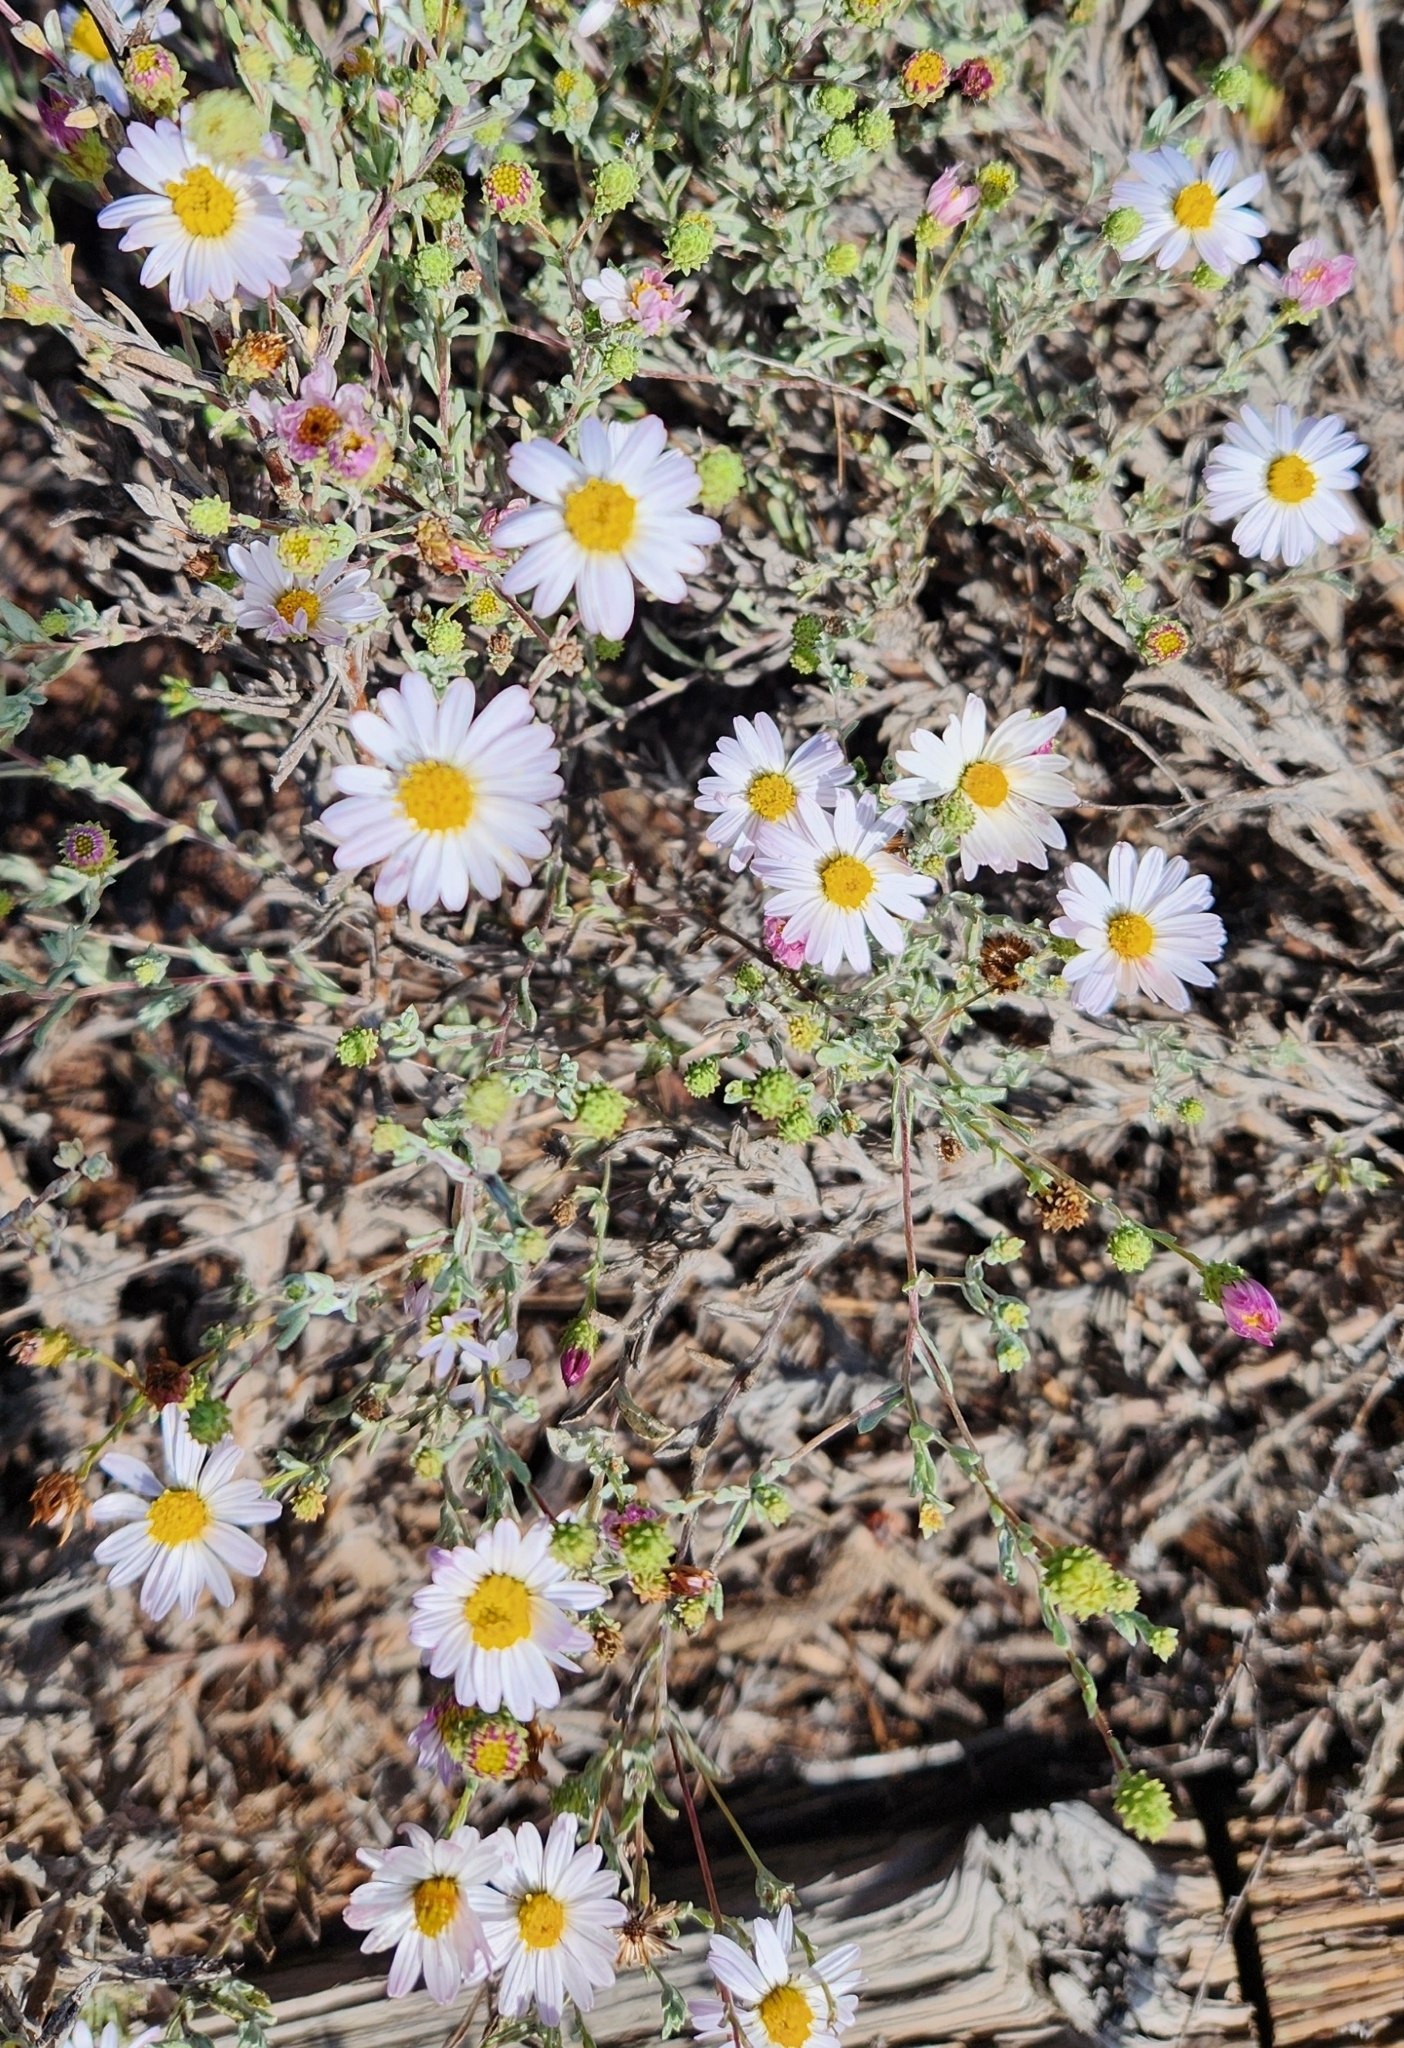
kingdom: Plantae
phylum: Tracheophyta
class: Magnoliopsida
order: Asterales
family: Asteraceae
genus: Corethrogyne
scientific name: Corethrogyne filaginifolia
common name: Sand-aster
